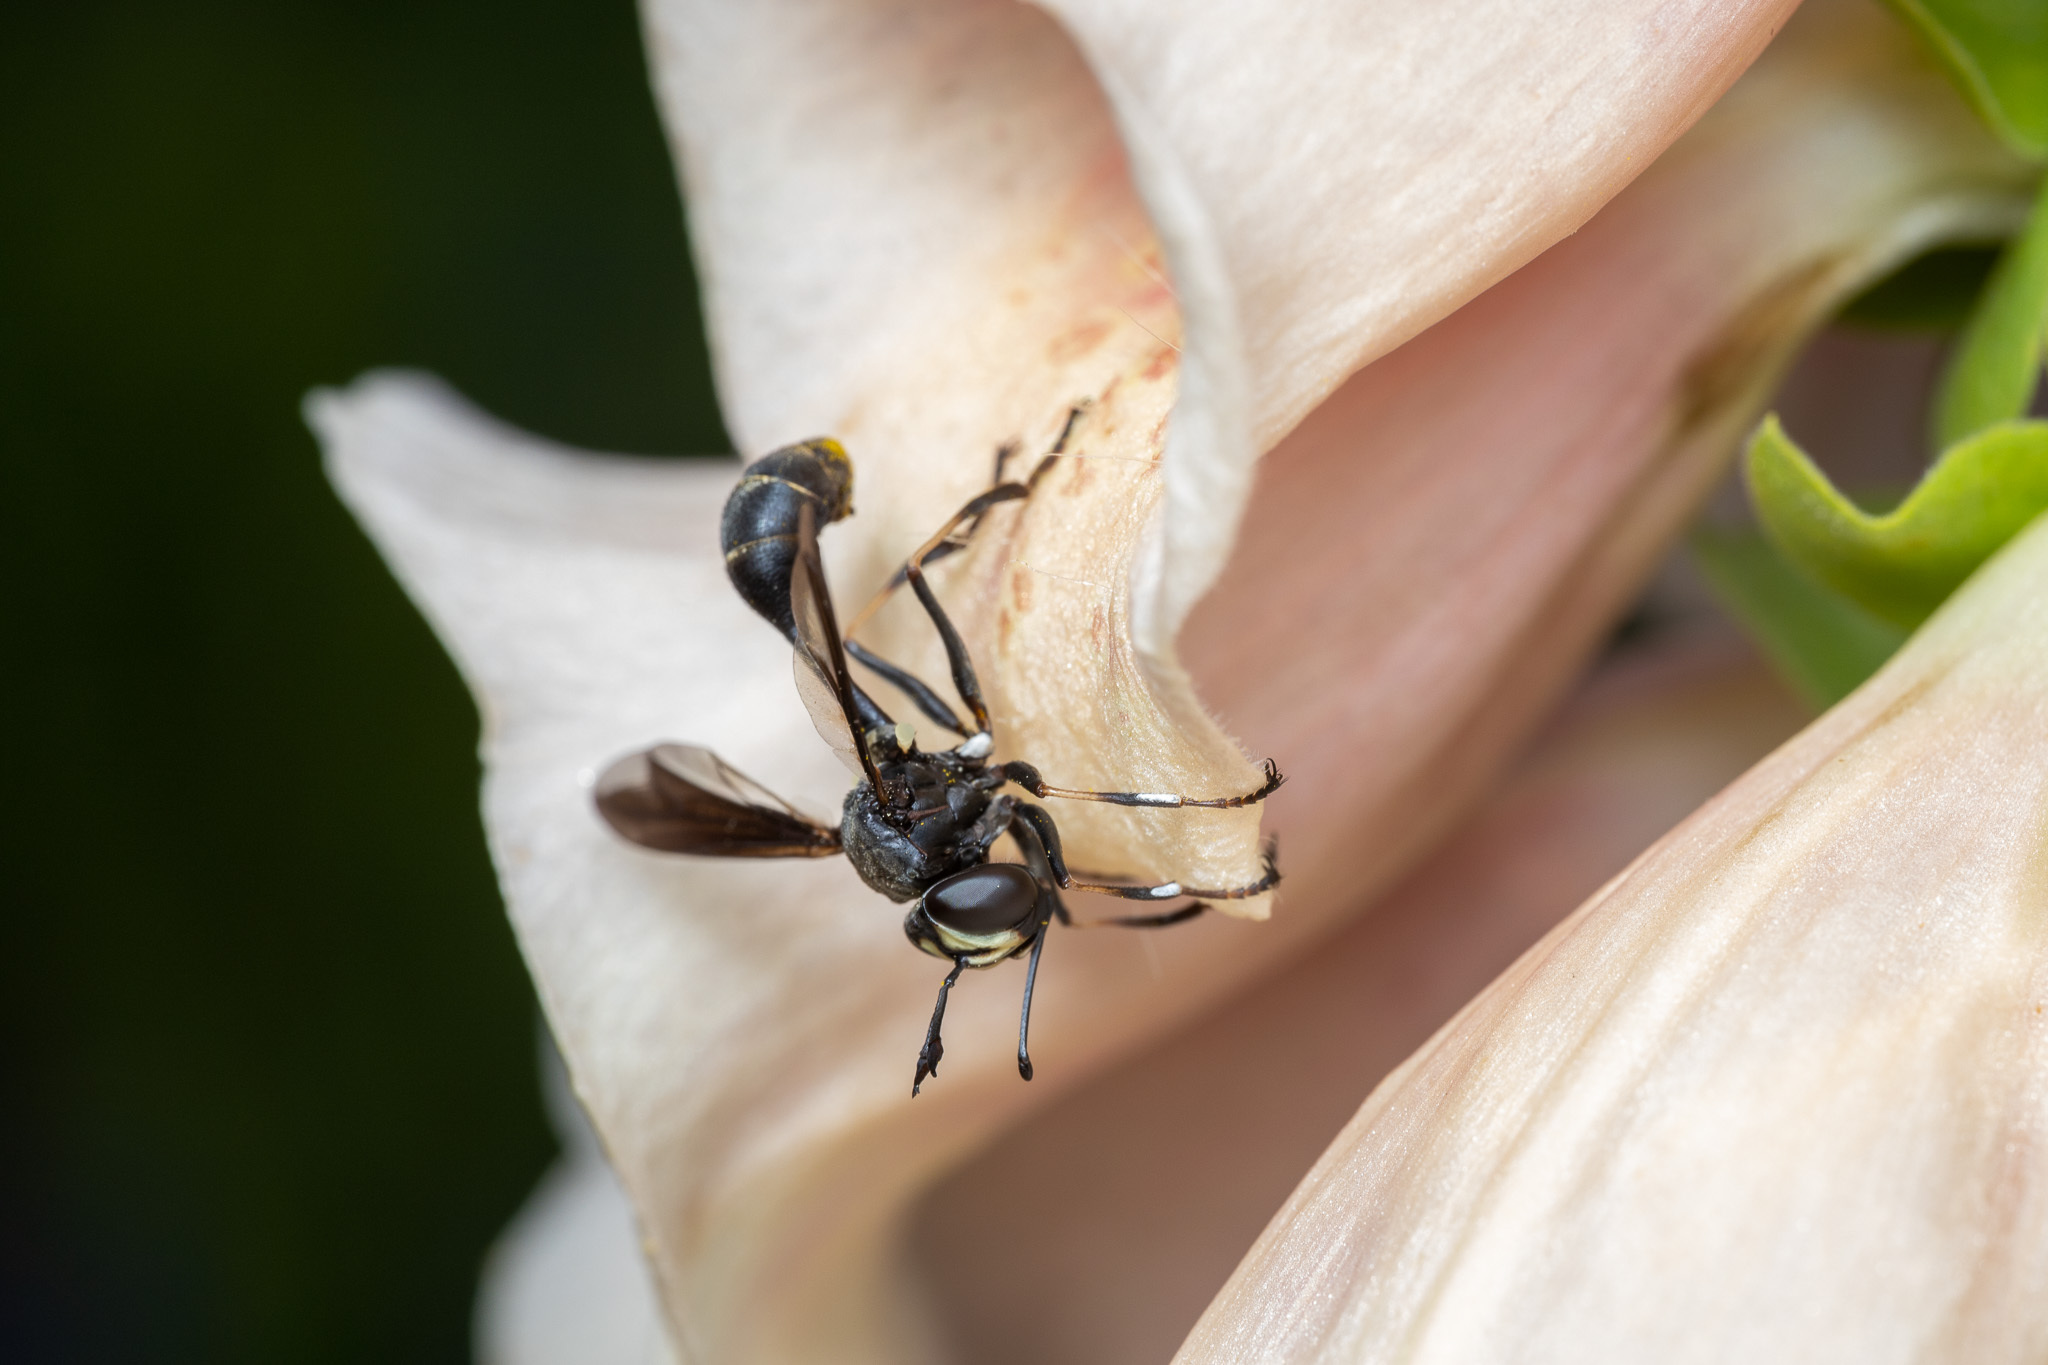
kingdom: Animalia
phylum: Arthropoda
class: Insecta
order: Diptera
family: Conopidae
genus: Physocephala
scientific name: Physocephala tibialis
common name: Common eastern physocephala
